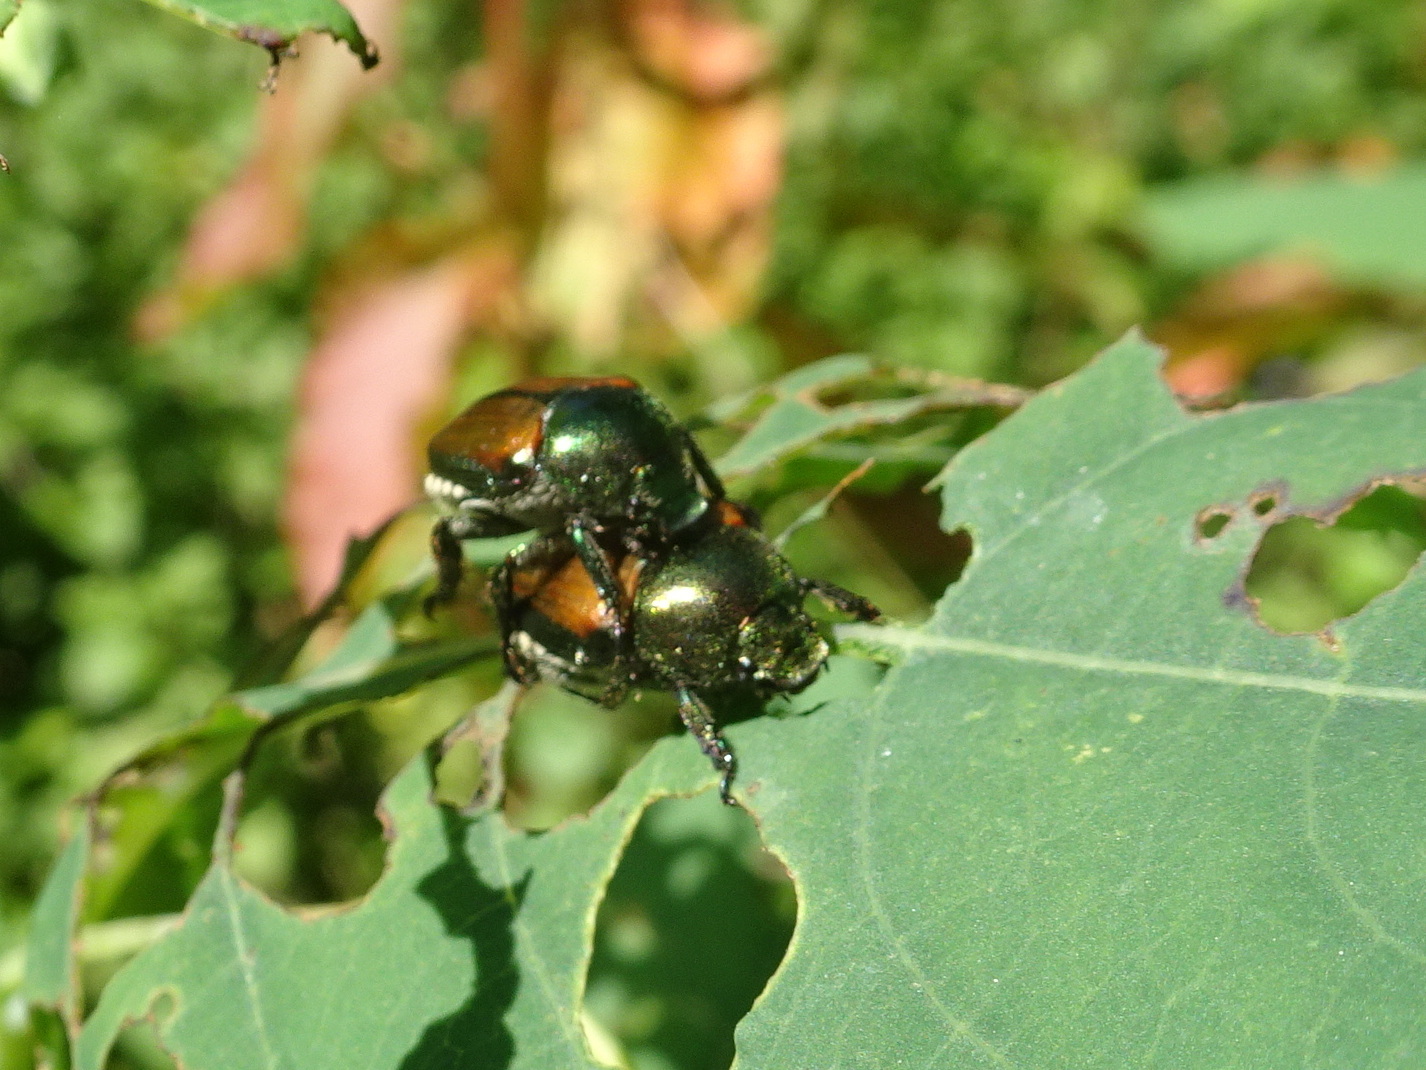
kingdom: Animalia
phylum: Arthropoda
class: Insecta
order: Coleoptera
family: Scarabaeidae
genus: Popillia
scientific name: Popillia japonica
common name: Japanese beetle
